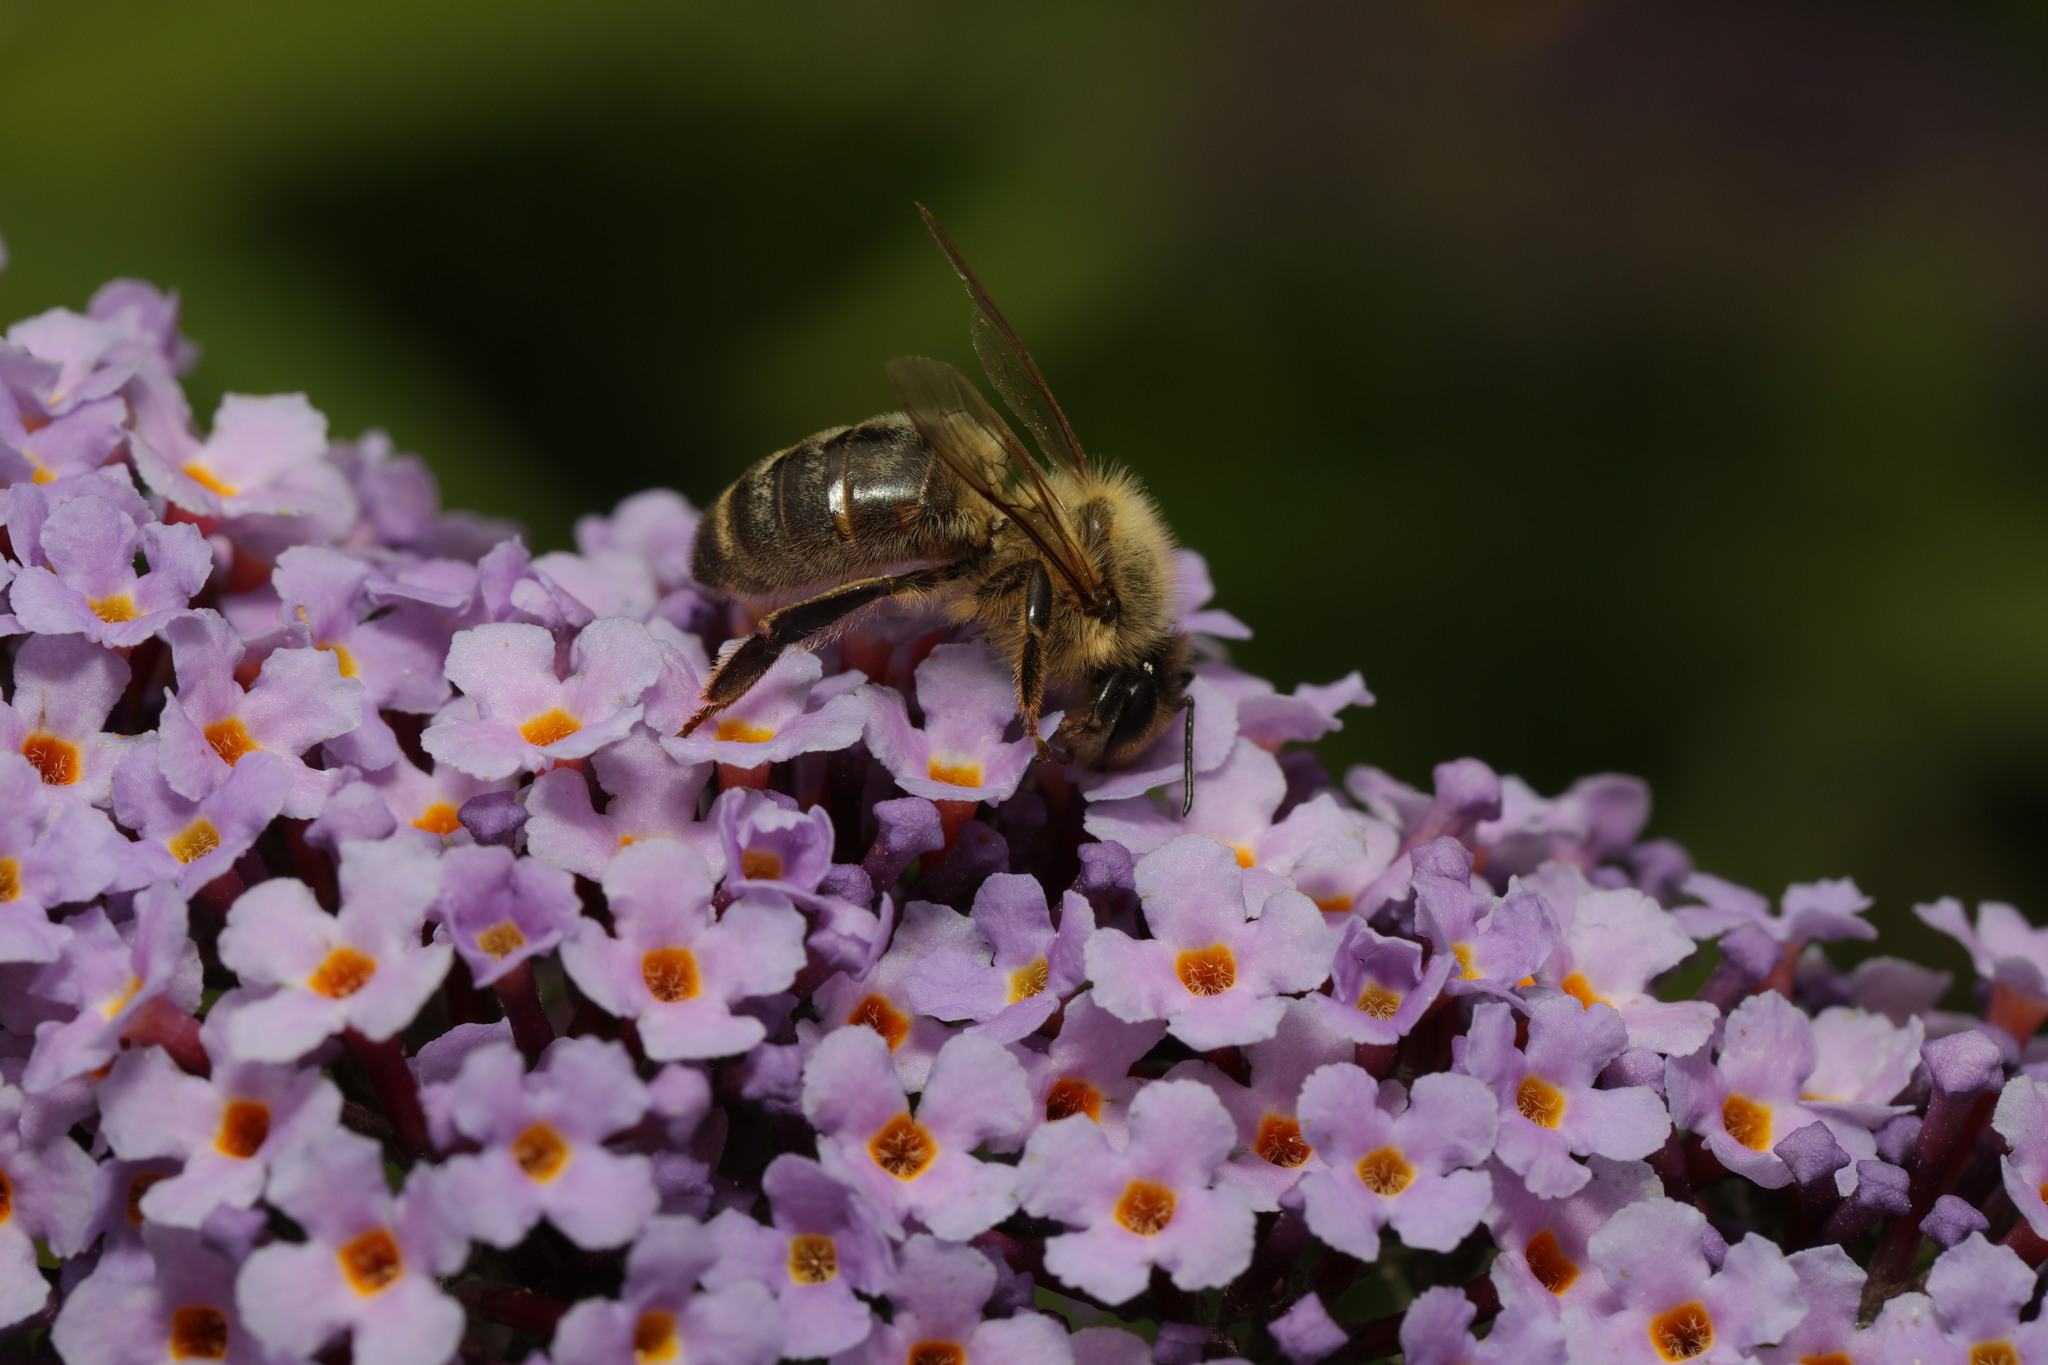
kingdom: Animalia
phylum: Arthropoda
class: Insecta
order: Hymenoptera
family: Apidae
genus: Apis
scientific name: Apis mellifera
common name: Honey bee
